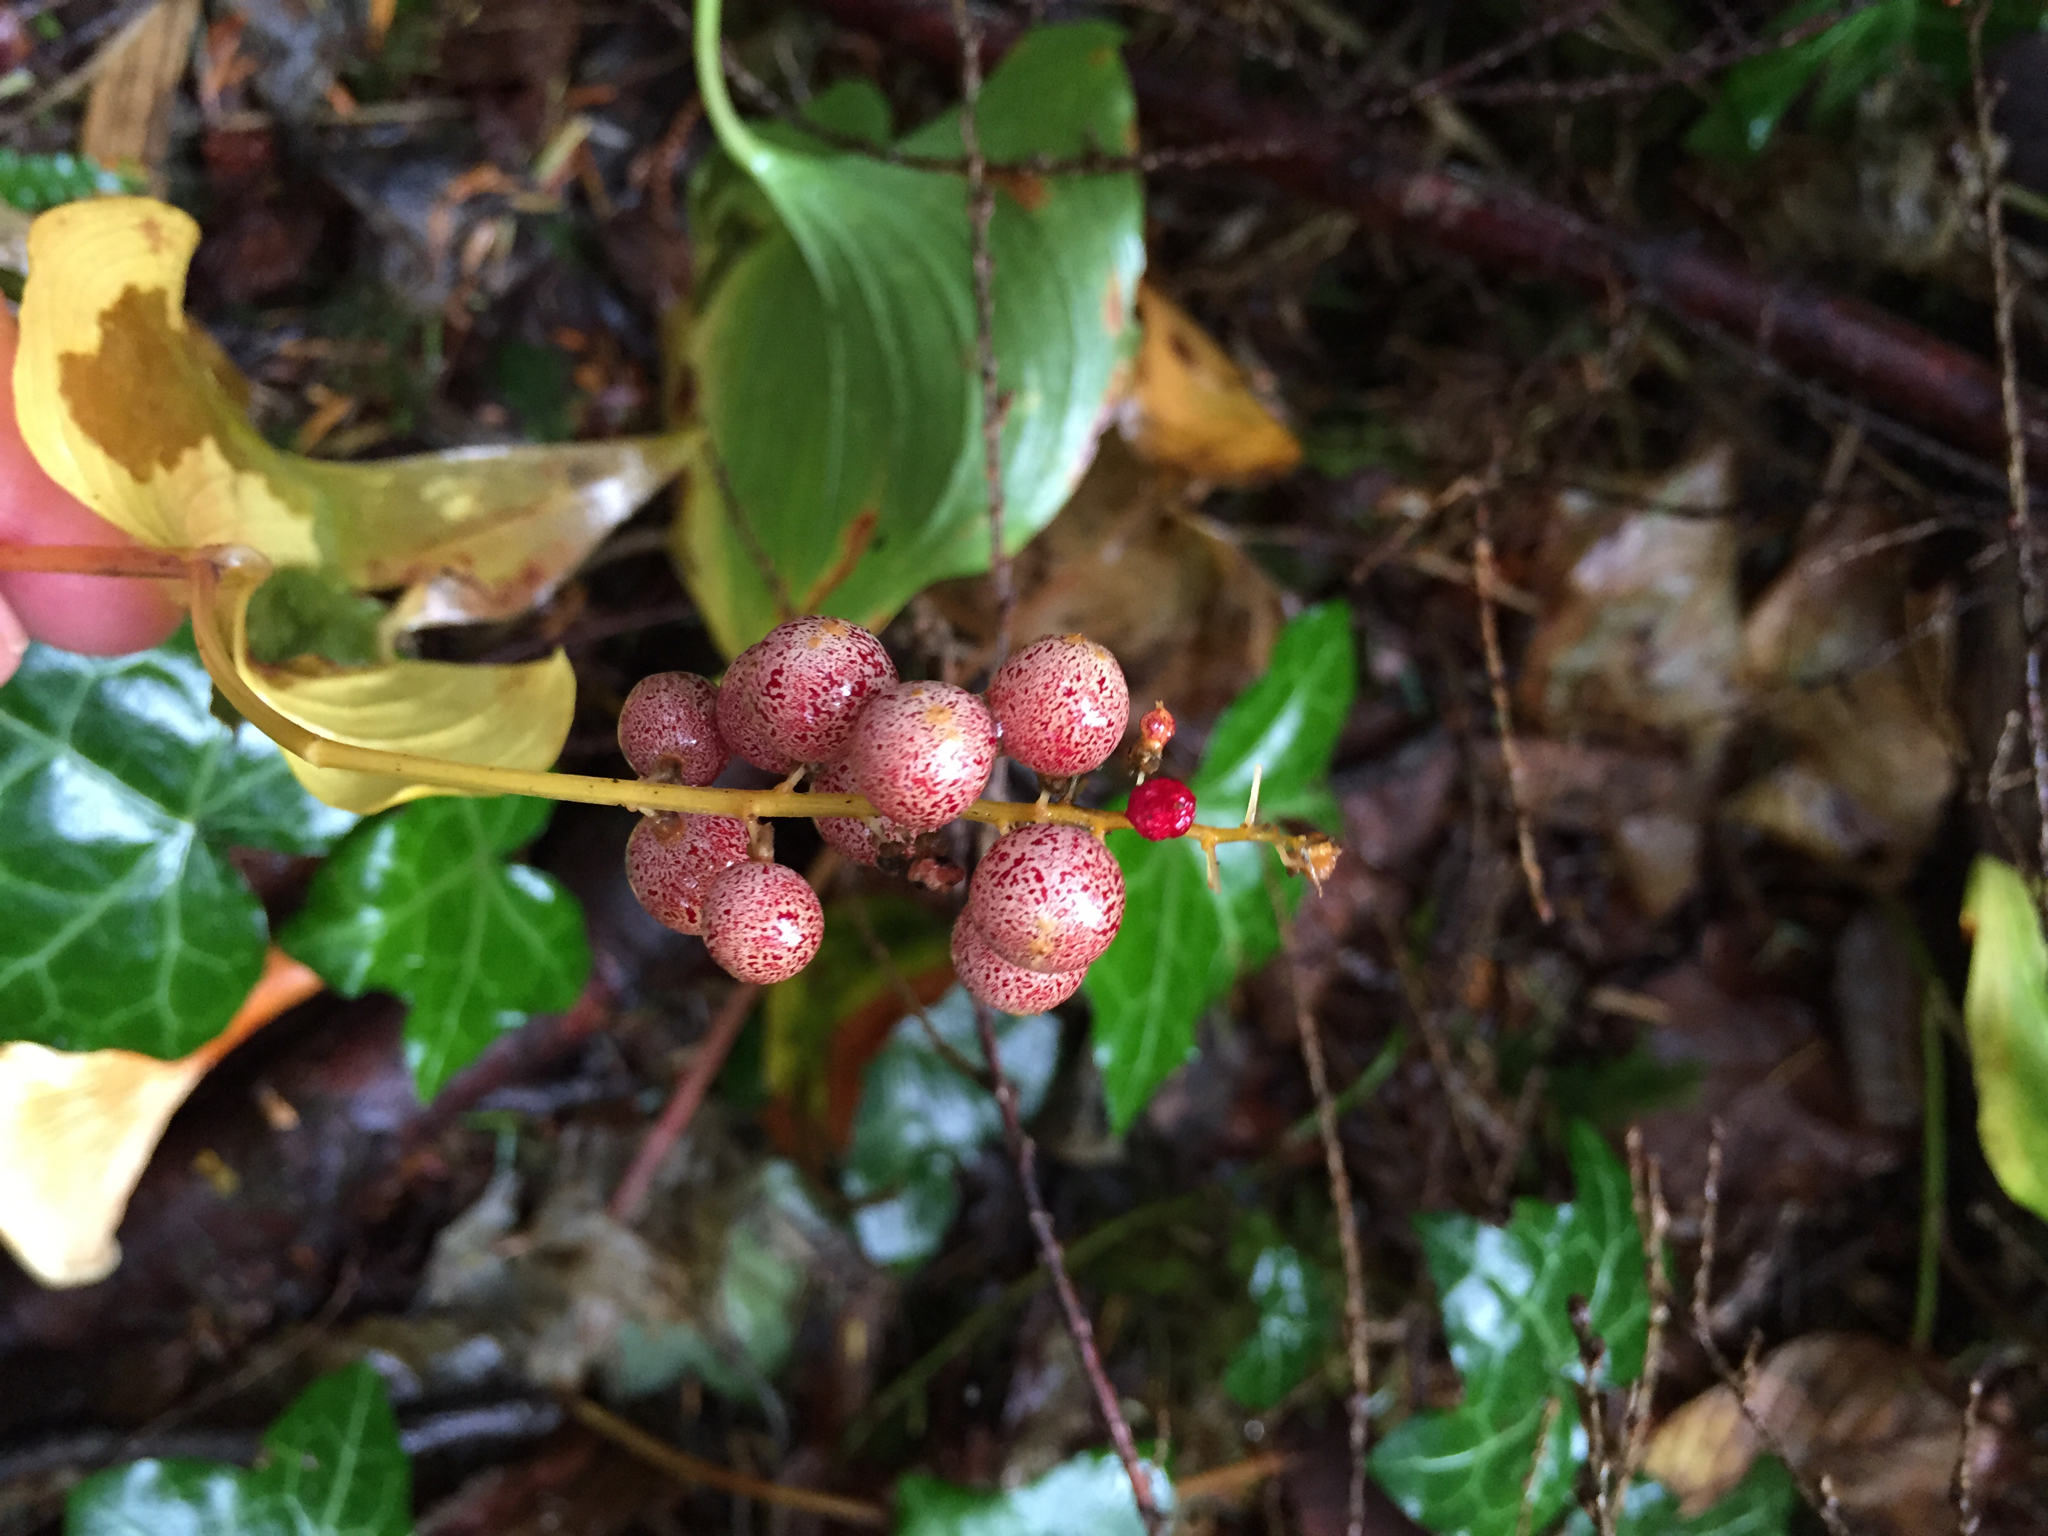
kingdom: Plantae
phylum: Tracheophyta
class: Liliopsida
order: Asparagales
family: Asparagaceae
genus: Maianthemum
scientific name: Maianthemum dilatatum
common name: False lily-of-the-valley
